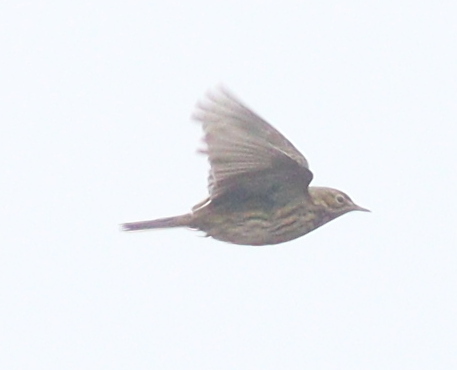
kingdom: Animalia
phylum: Chordata
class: Aves
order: Passeriformes
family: Motacillidae
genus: Anthus
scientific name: Anthus pratensis
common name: Meadow pipit
